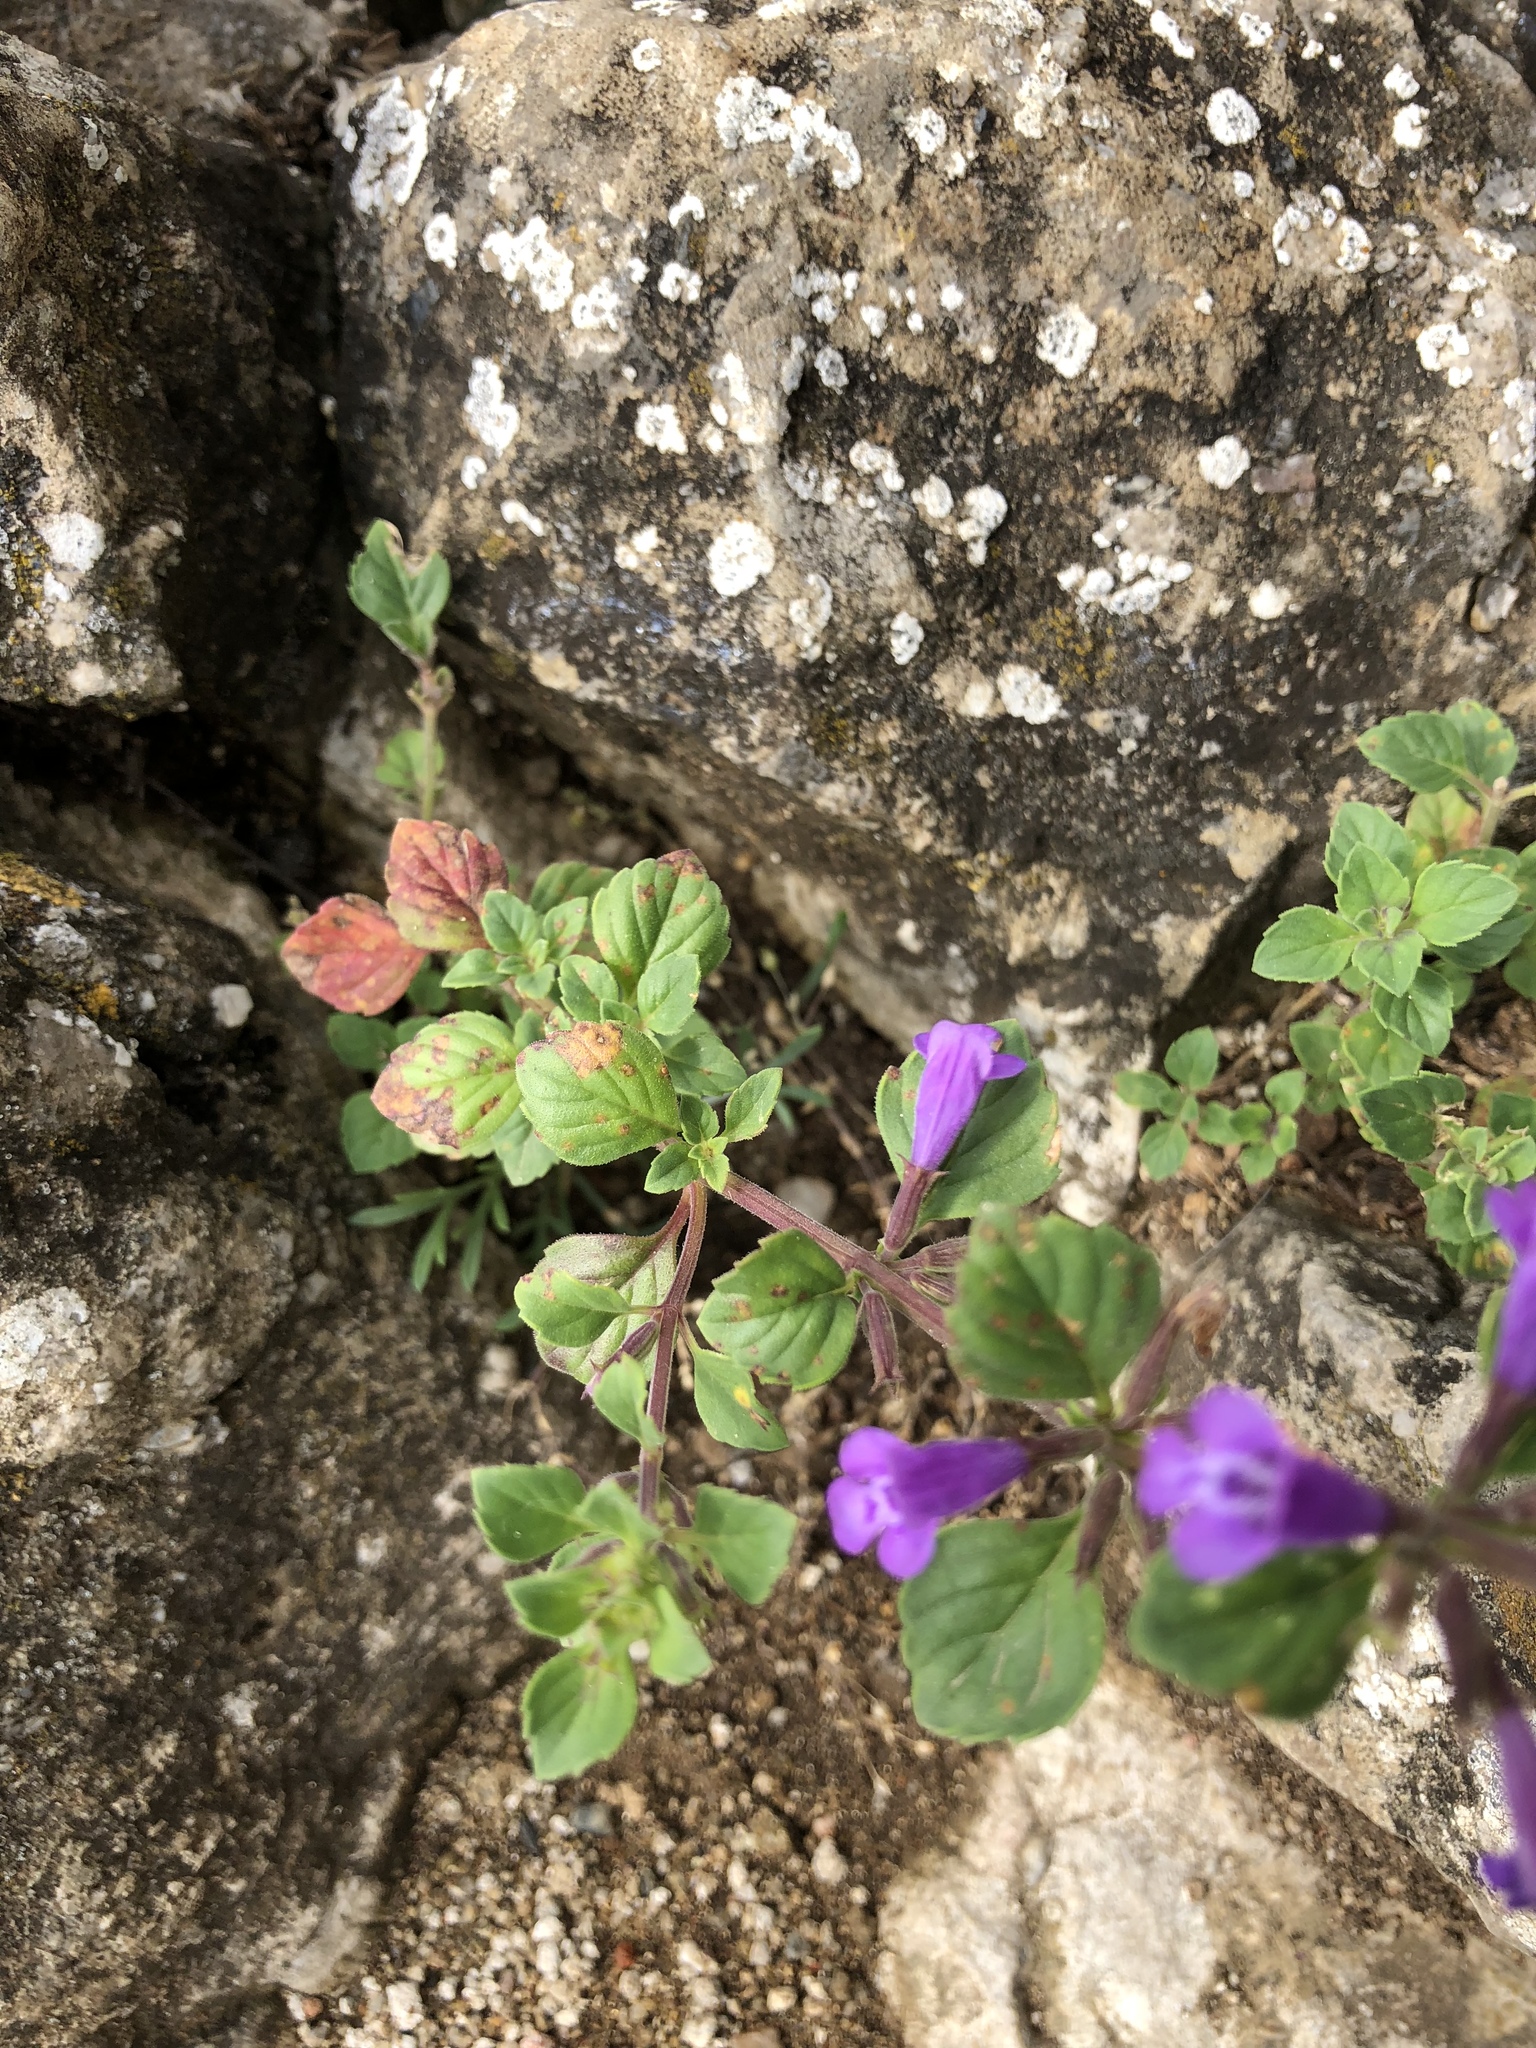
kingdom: Plantae
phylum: Tracheophyta
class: Magnoliopsida
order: Lamiales
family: Lamiaceae
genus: Clinopodium
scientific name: Clinopodium alpinum
